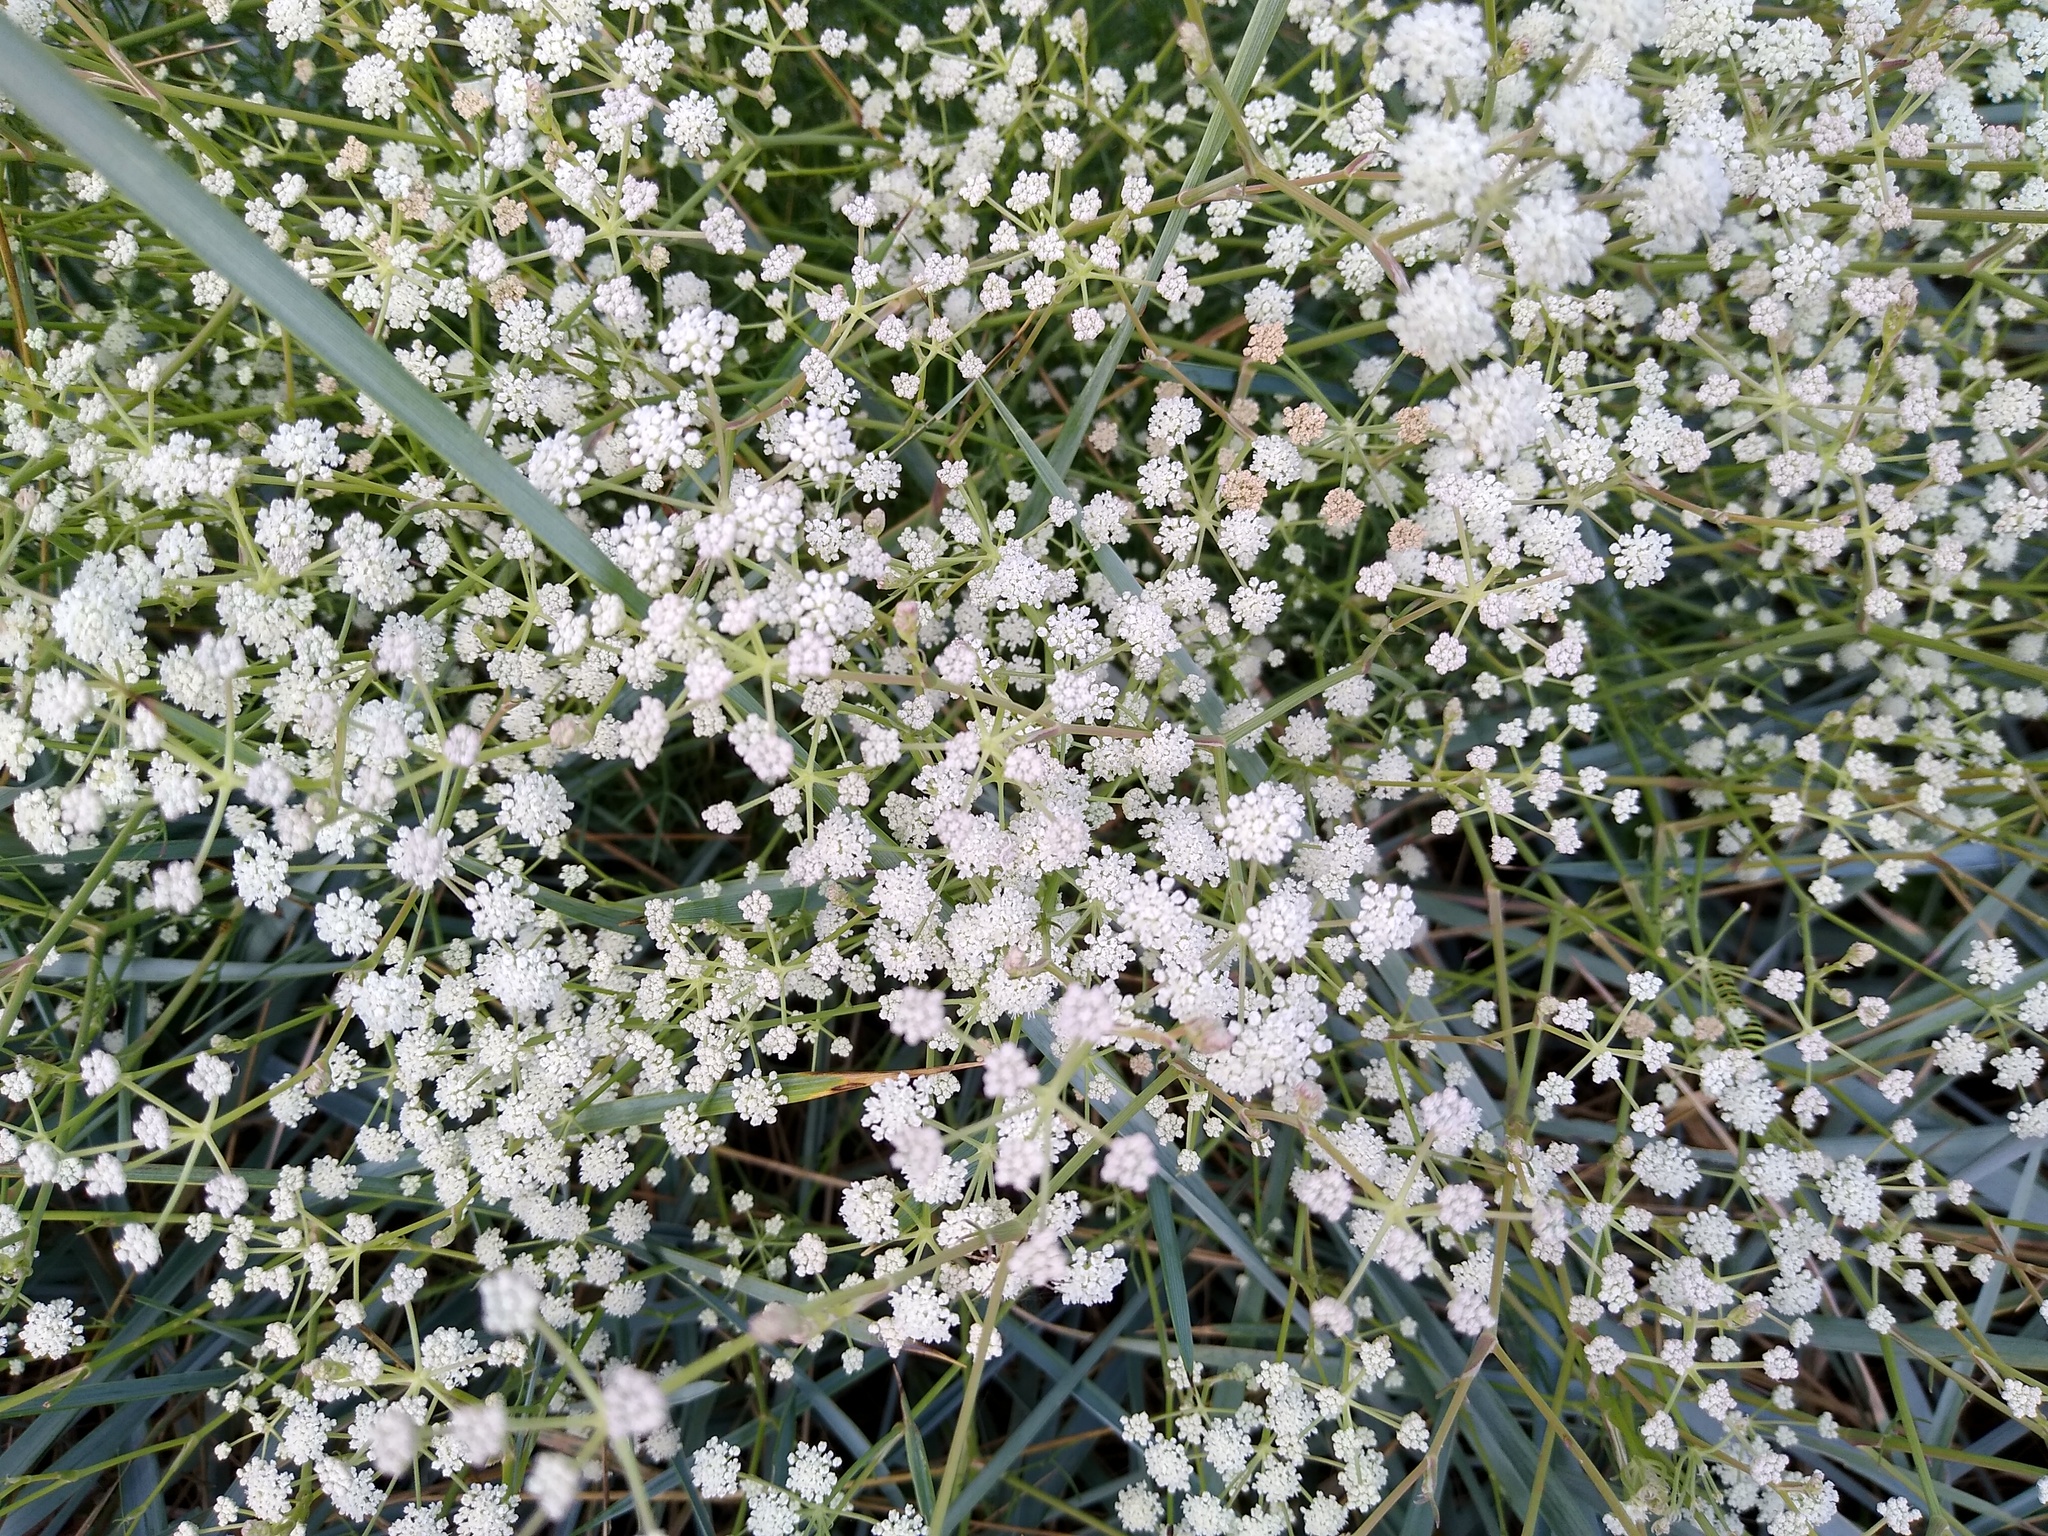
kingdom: Plantae
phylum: Tracheophyta
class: Magnoliopsida
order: Apiales
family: Apiaceae
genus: Seseli
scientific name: Seseli arenarium
